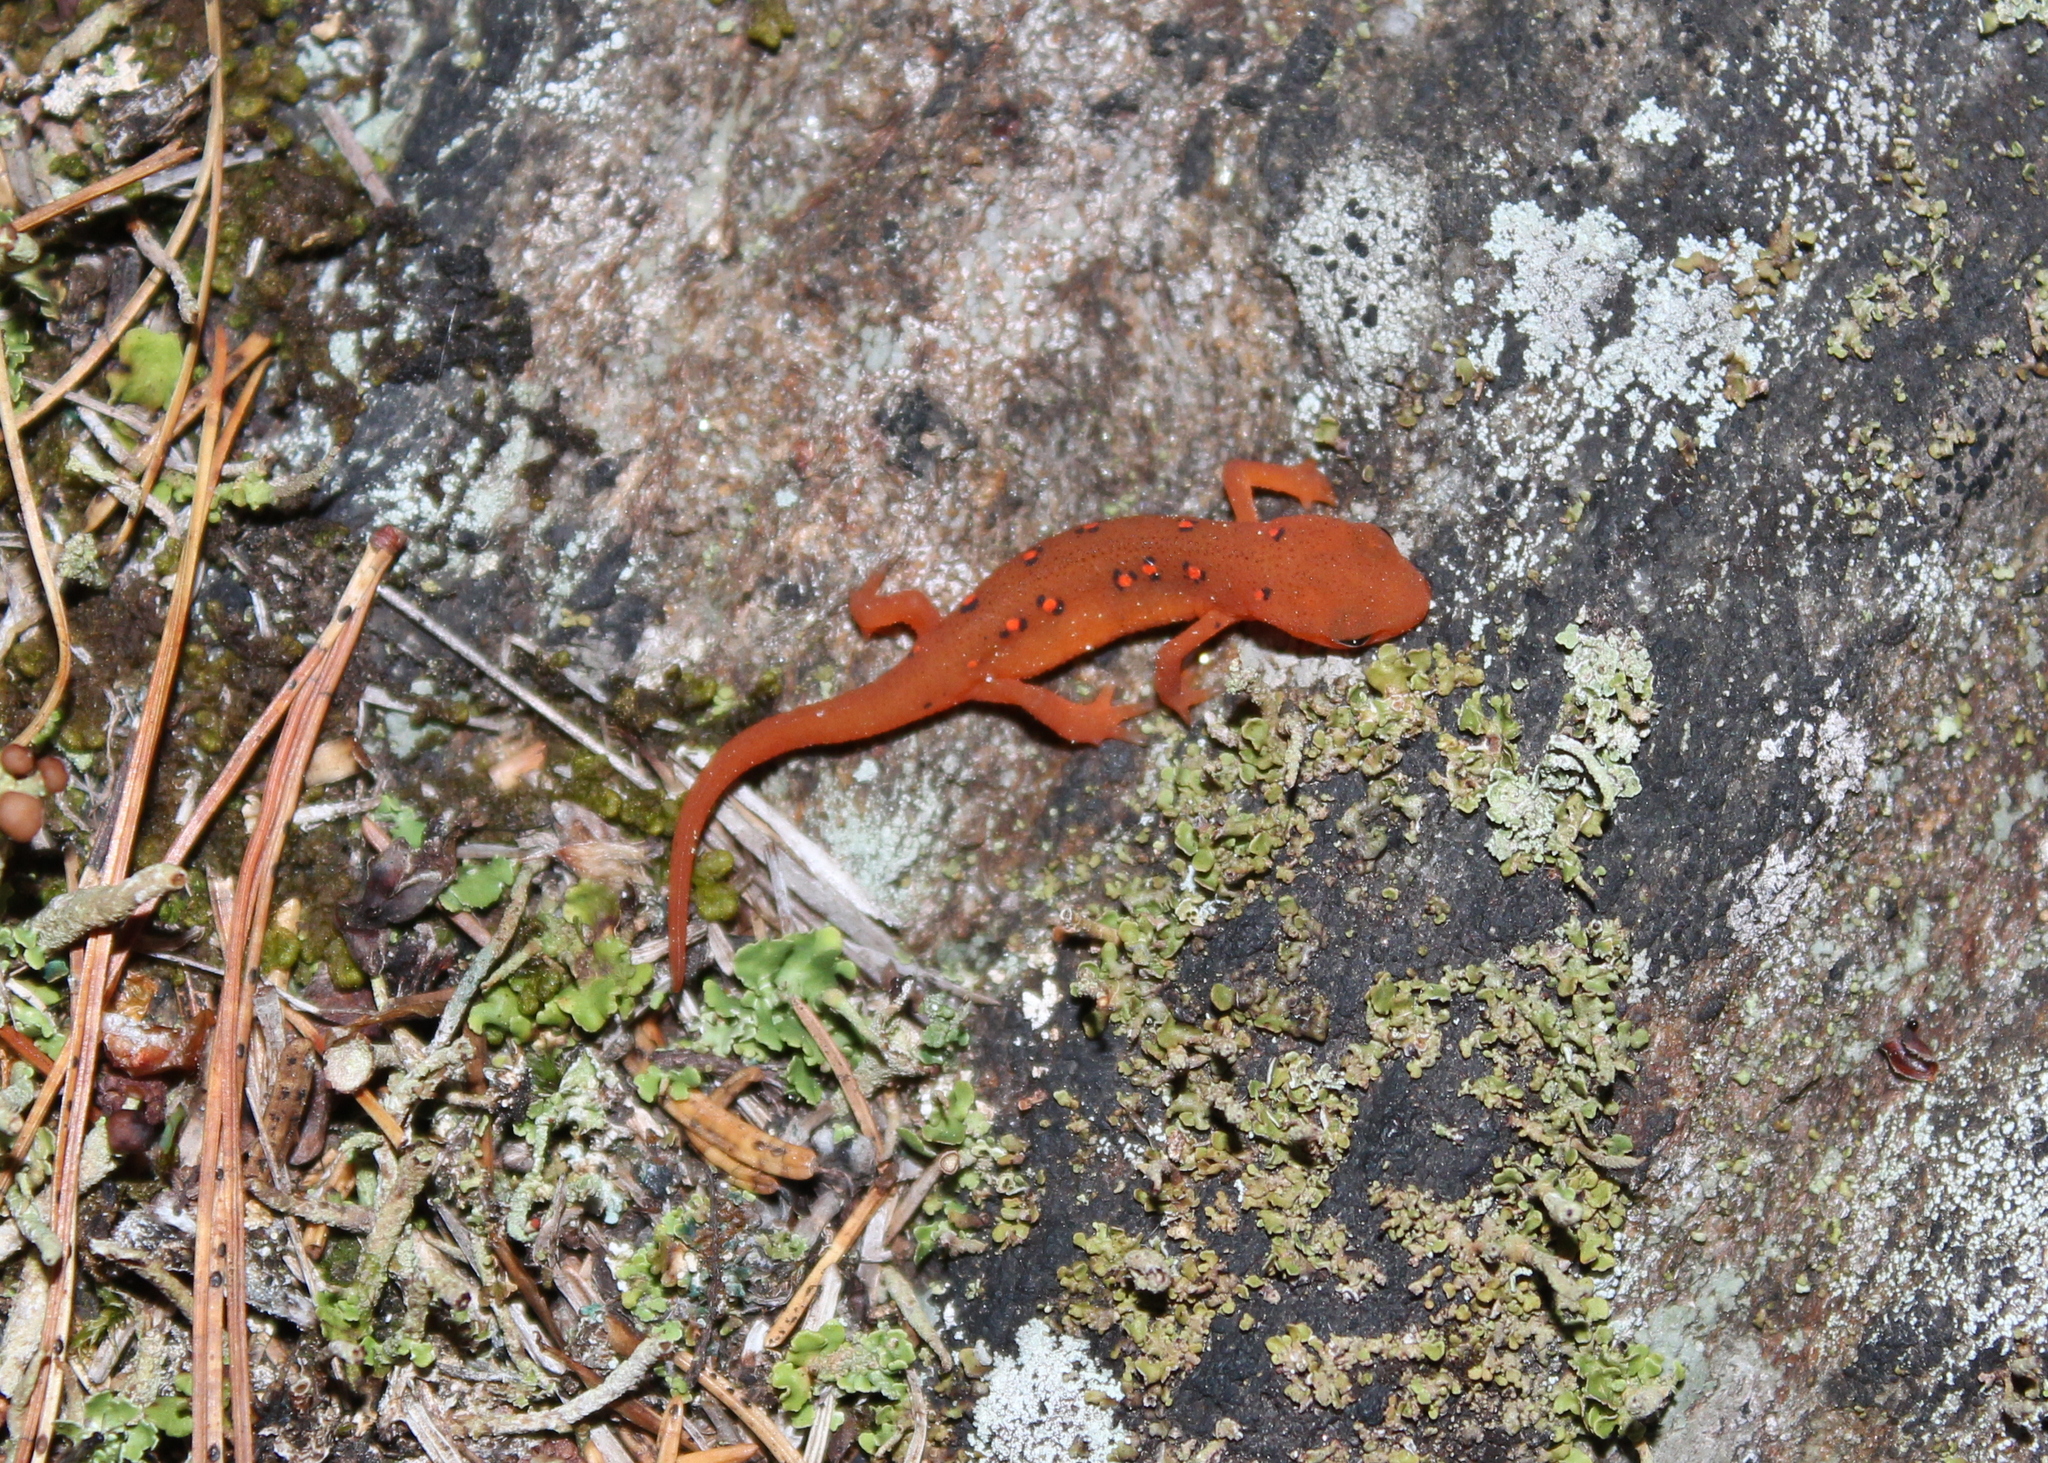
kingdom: Animalia
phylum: Chordata
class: Amphibia
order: Caudata
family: Salamandridae
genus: Notophthalmus
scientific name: Notophthalmus viridescens
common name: Eastern newt
